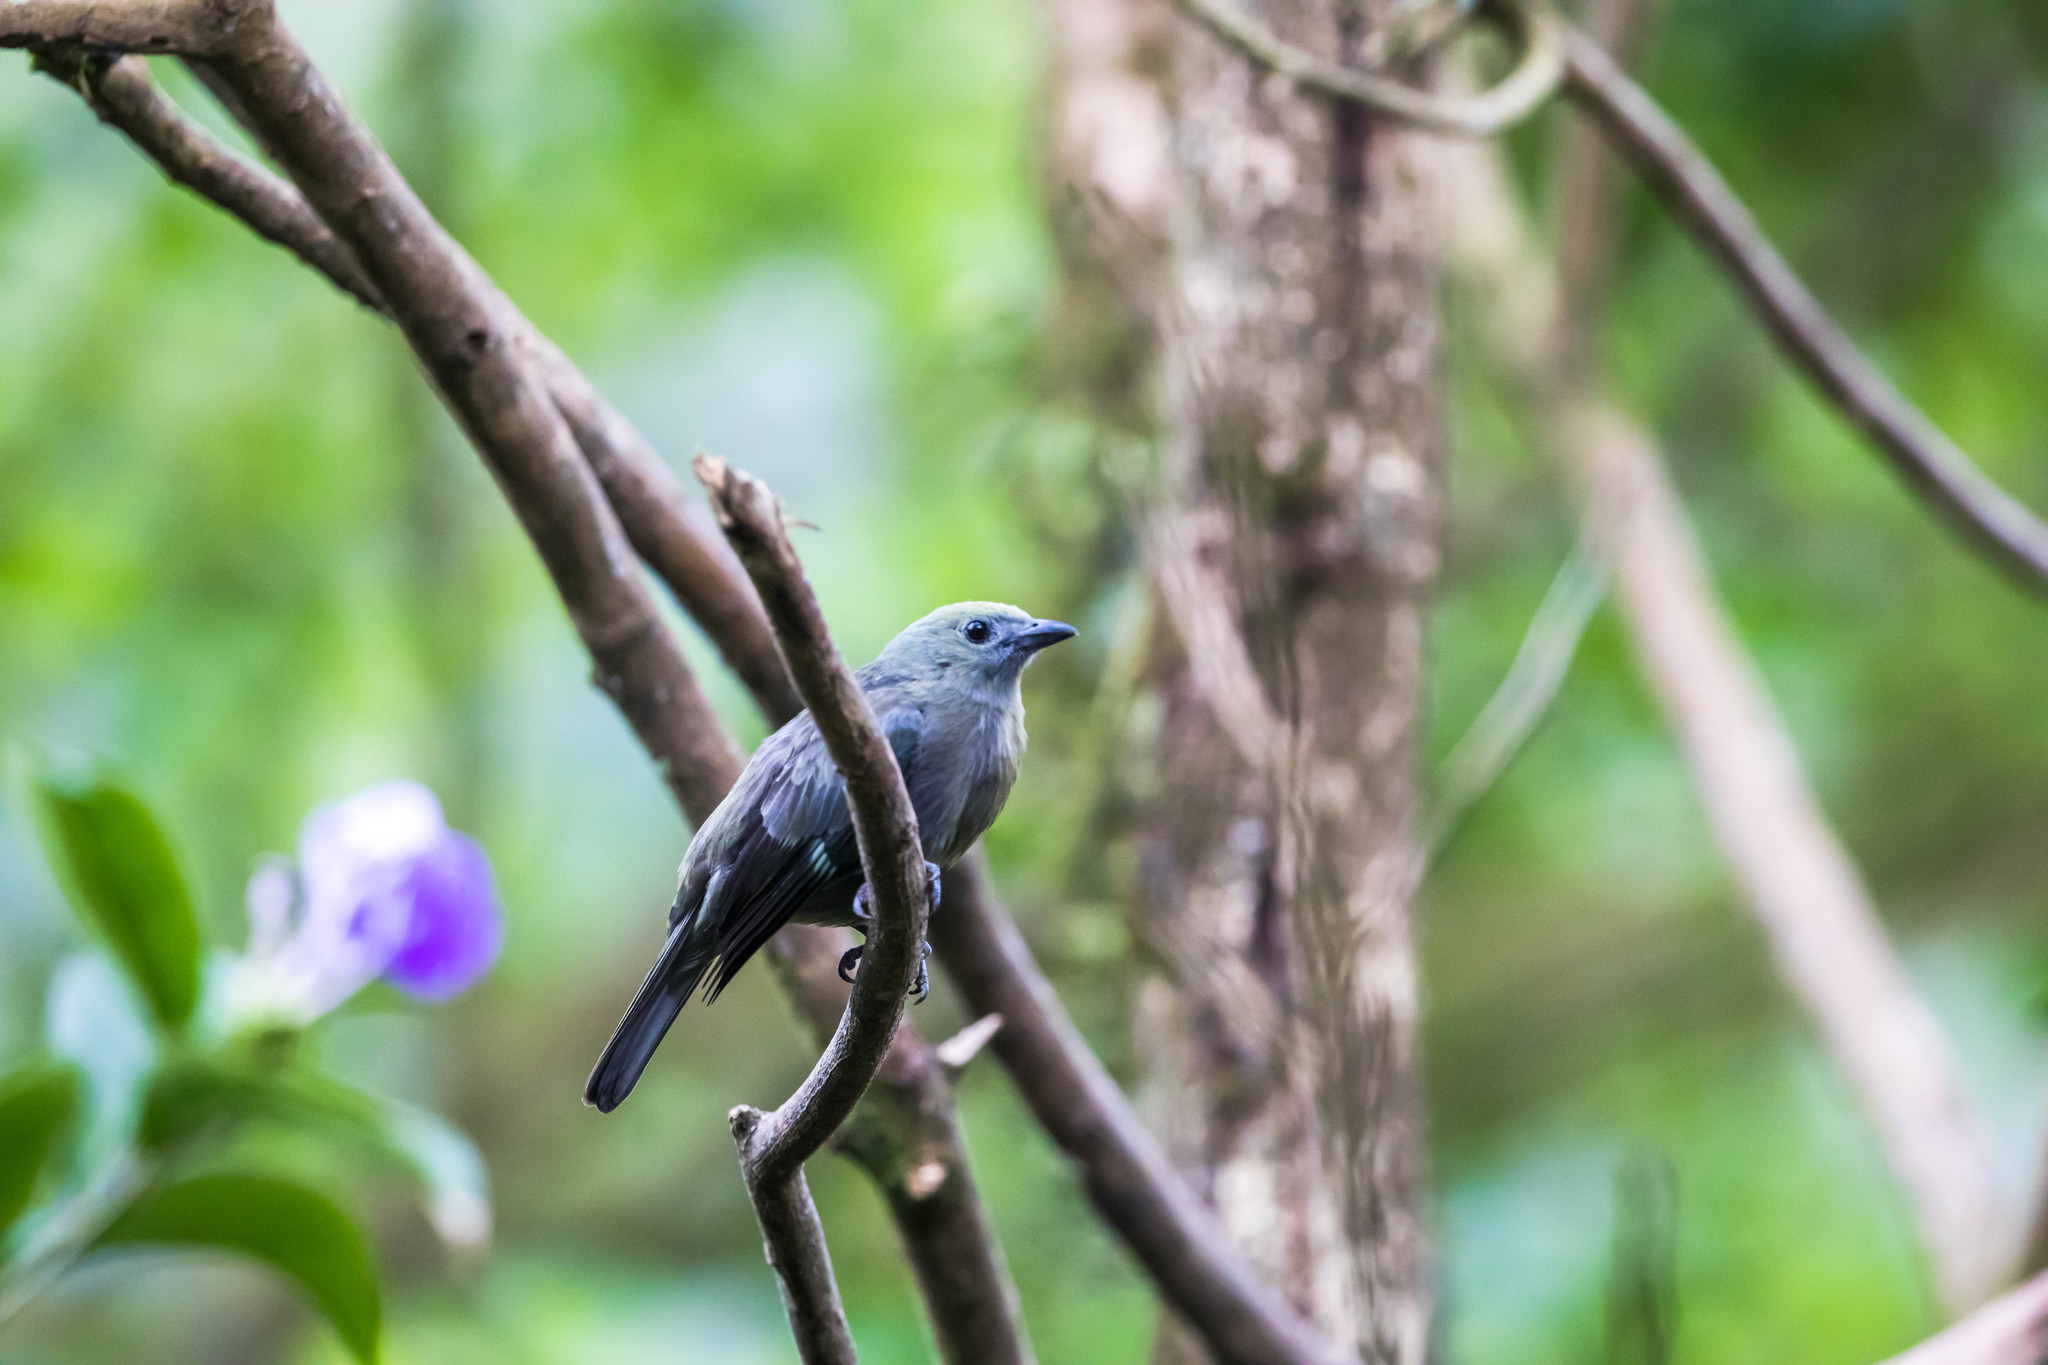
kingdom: Animalia
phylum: Chordata
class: Aves
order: Passeriformes
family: Thraupidae
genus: Thraupis
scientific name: Thraupis palmarum
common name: Palm tanager
